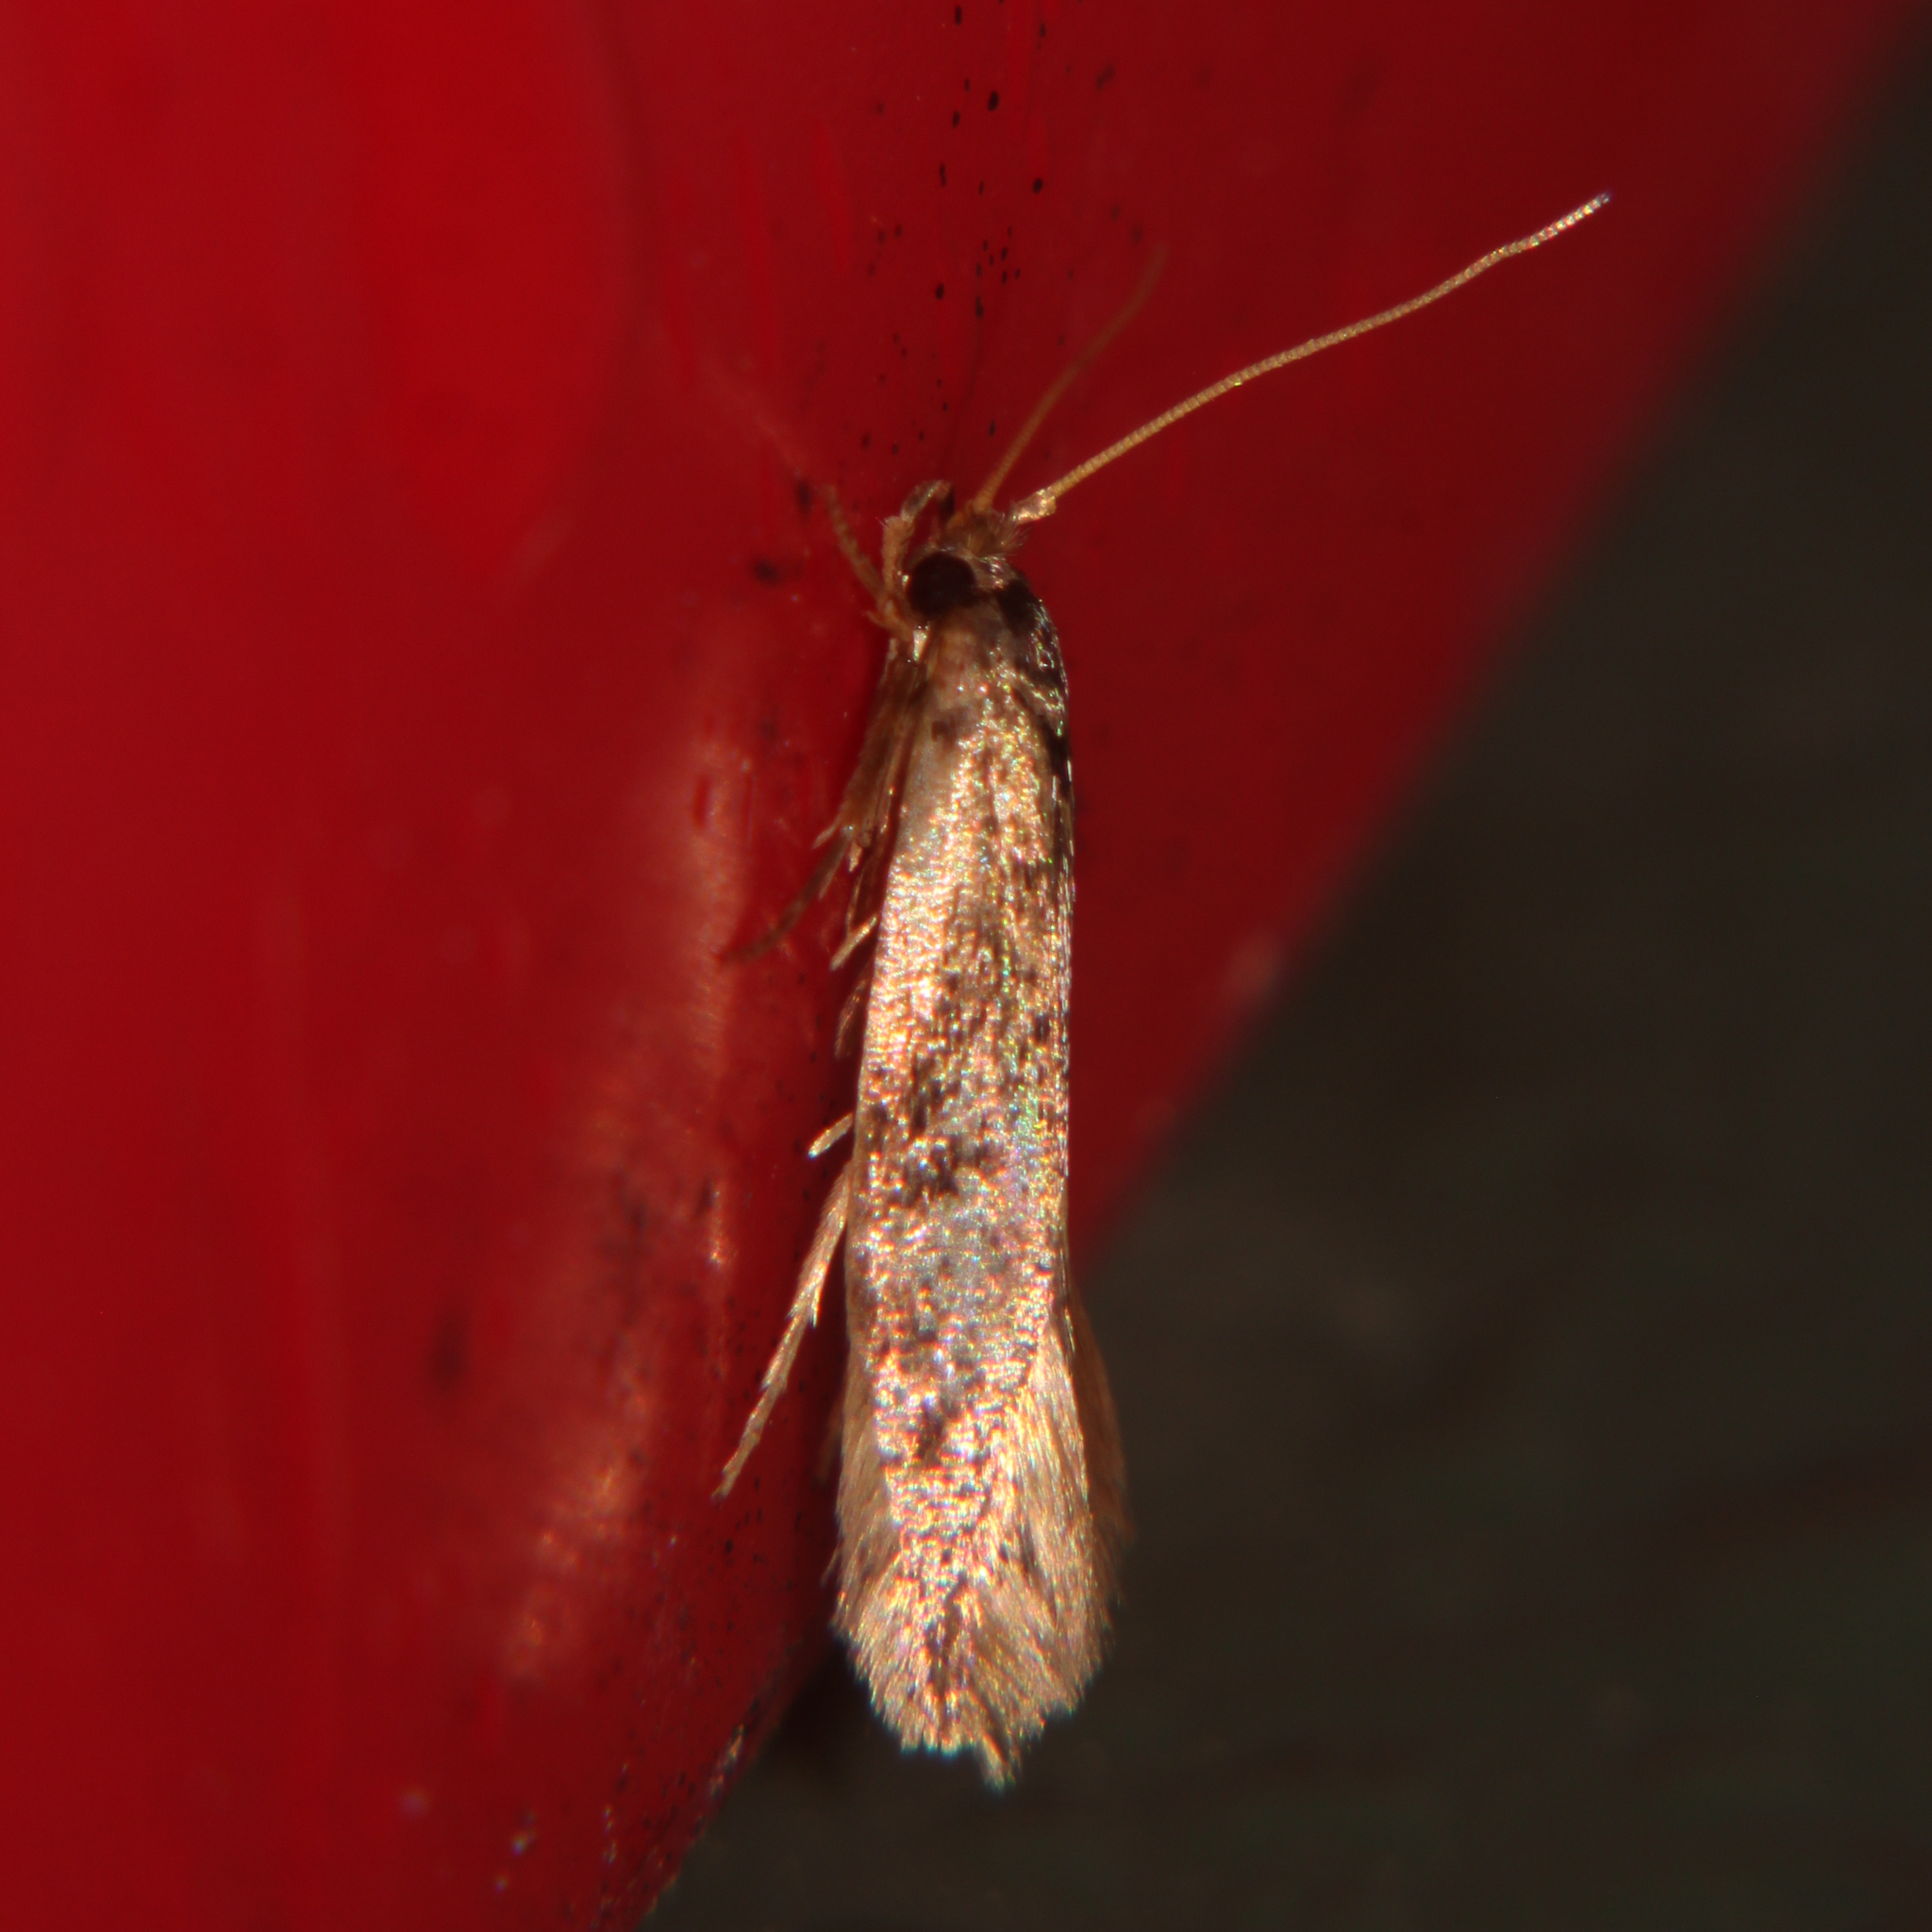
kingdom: Animalia
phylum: Arthropoda
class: Insecta
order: Lepidoptera
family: Tineidae
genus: Opogona
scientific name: Opogona omoscopa
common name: Moth
